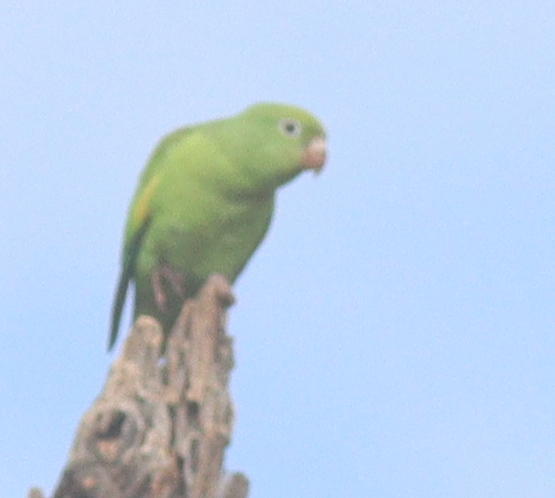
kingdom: Animalia
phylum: Chordata
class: Aves
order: Psittaciformes
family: Psittacidae
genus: Brotogeris
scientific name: Brotogeris chiriri
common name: Yellow-chevroned parakeet
